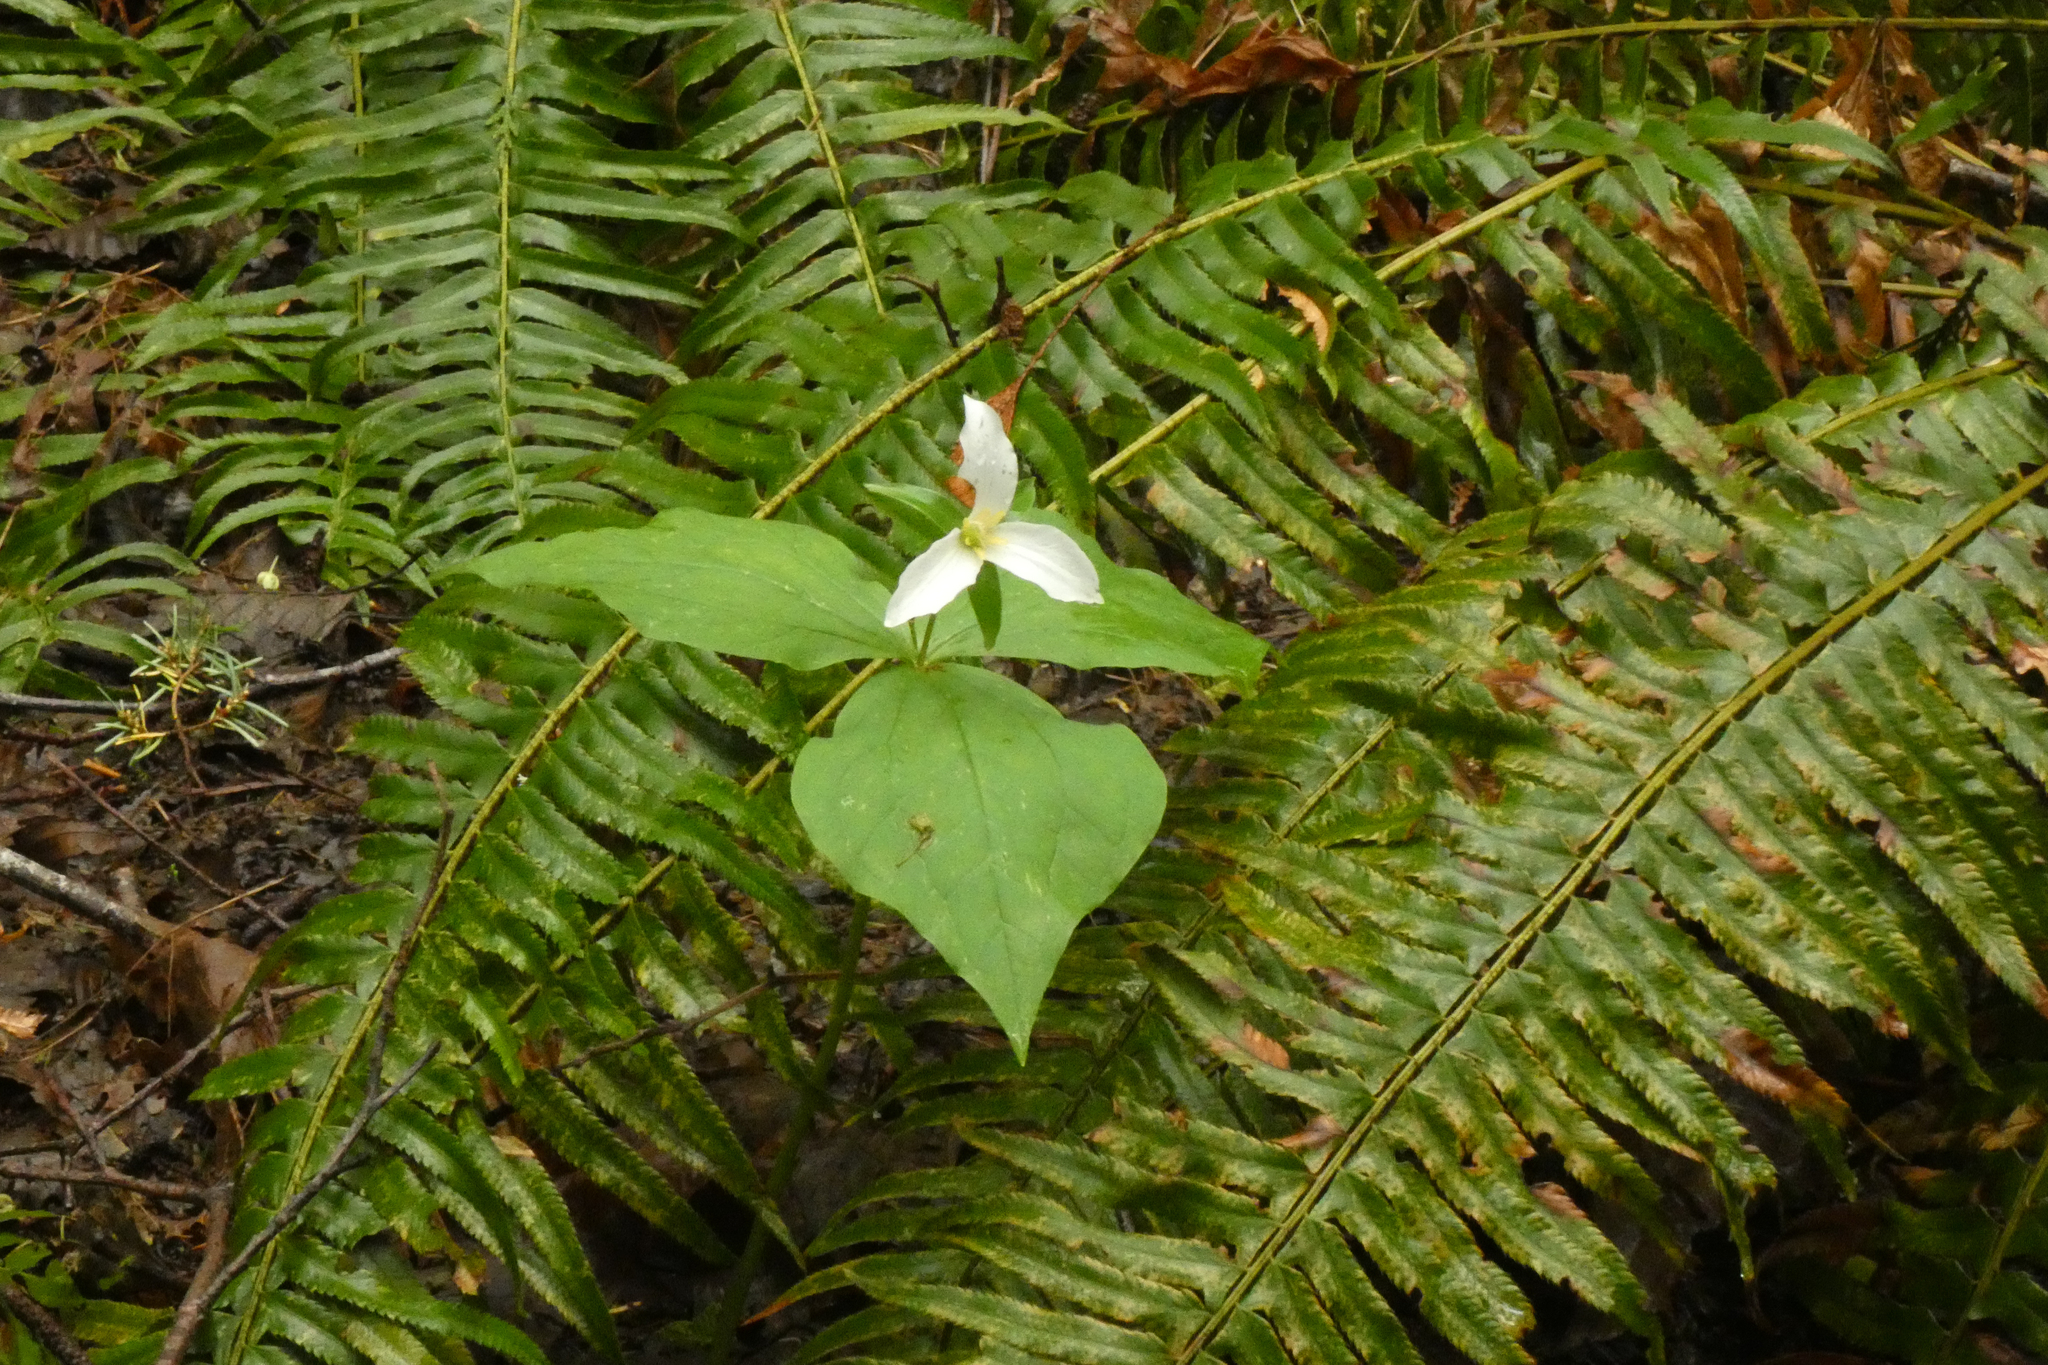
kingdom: Plantae
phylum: Tracheophyta
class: Liliopsida
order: Liliales
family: Melanthiaceae
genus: Trillium
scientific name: Trillium ovatum
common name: Pacific trillium
